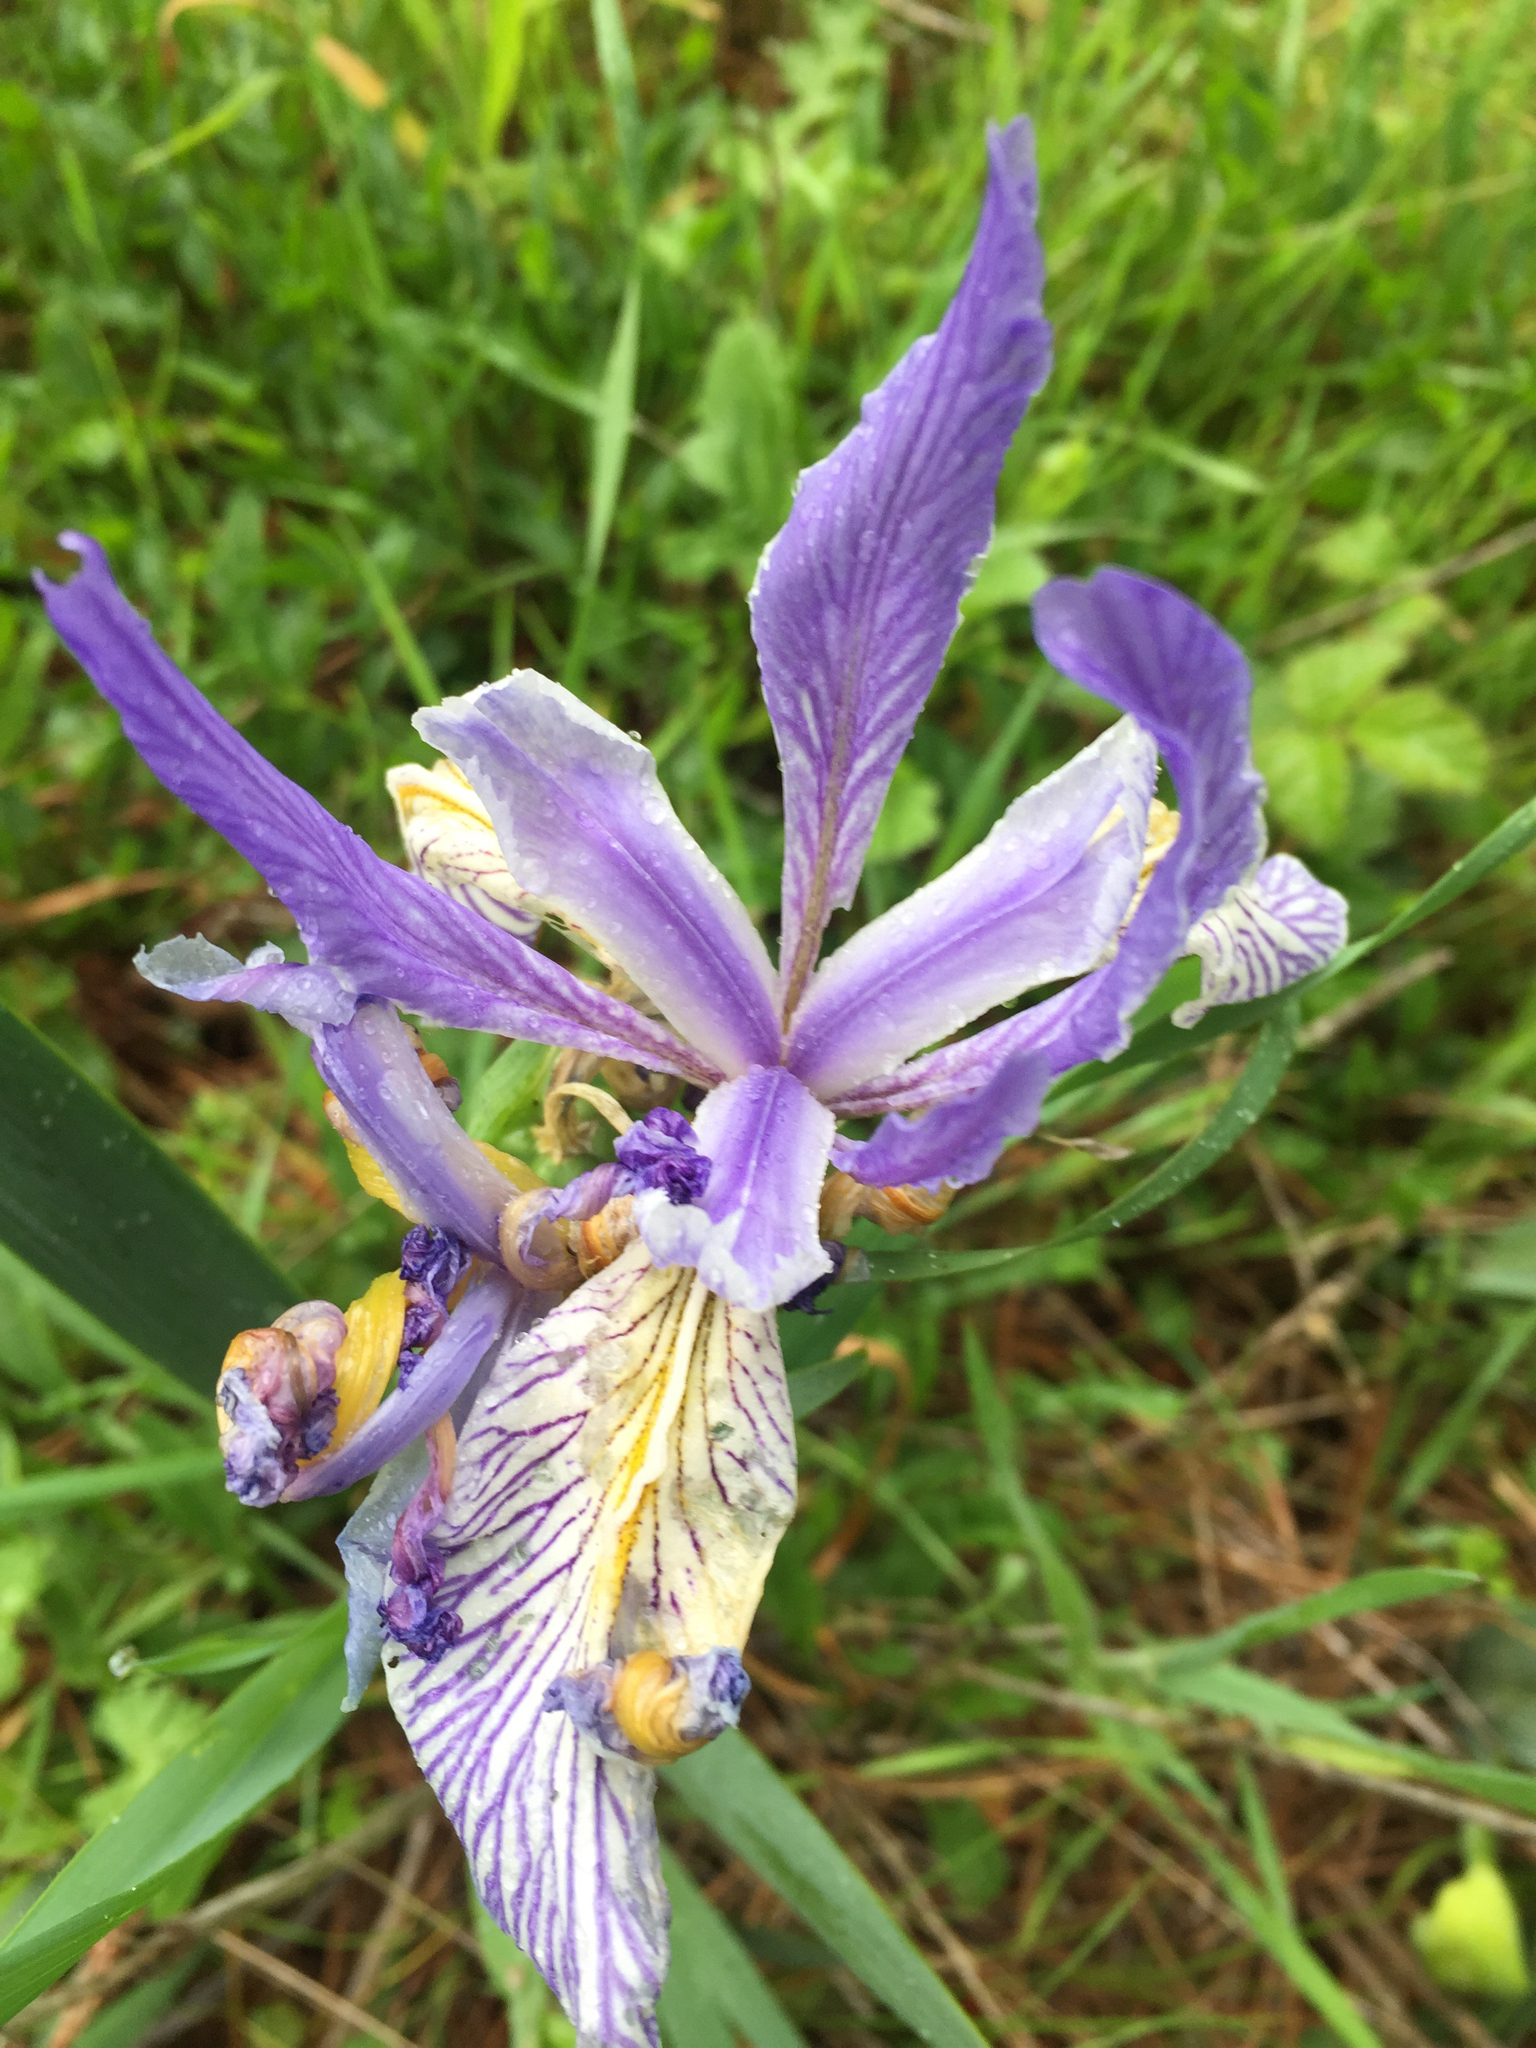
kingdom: Plantae
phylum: Tracheophyta
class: Liliopsida
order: Asparagales
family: Iridaceae
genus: Iris
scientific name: Iris longipetala
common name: Long-petal iris
